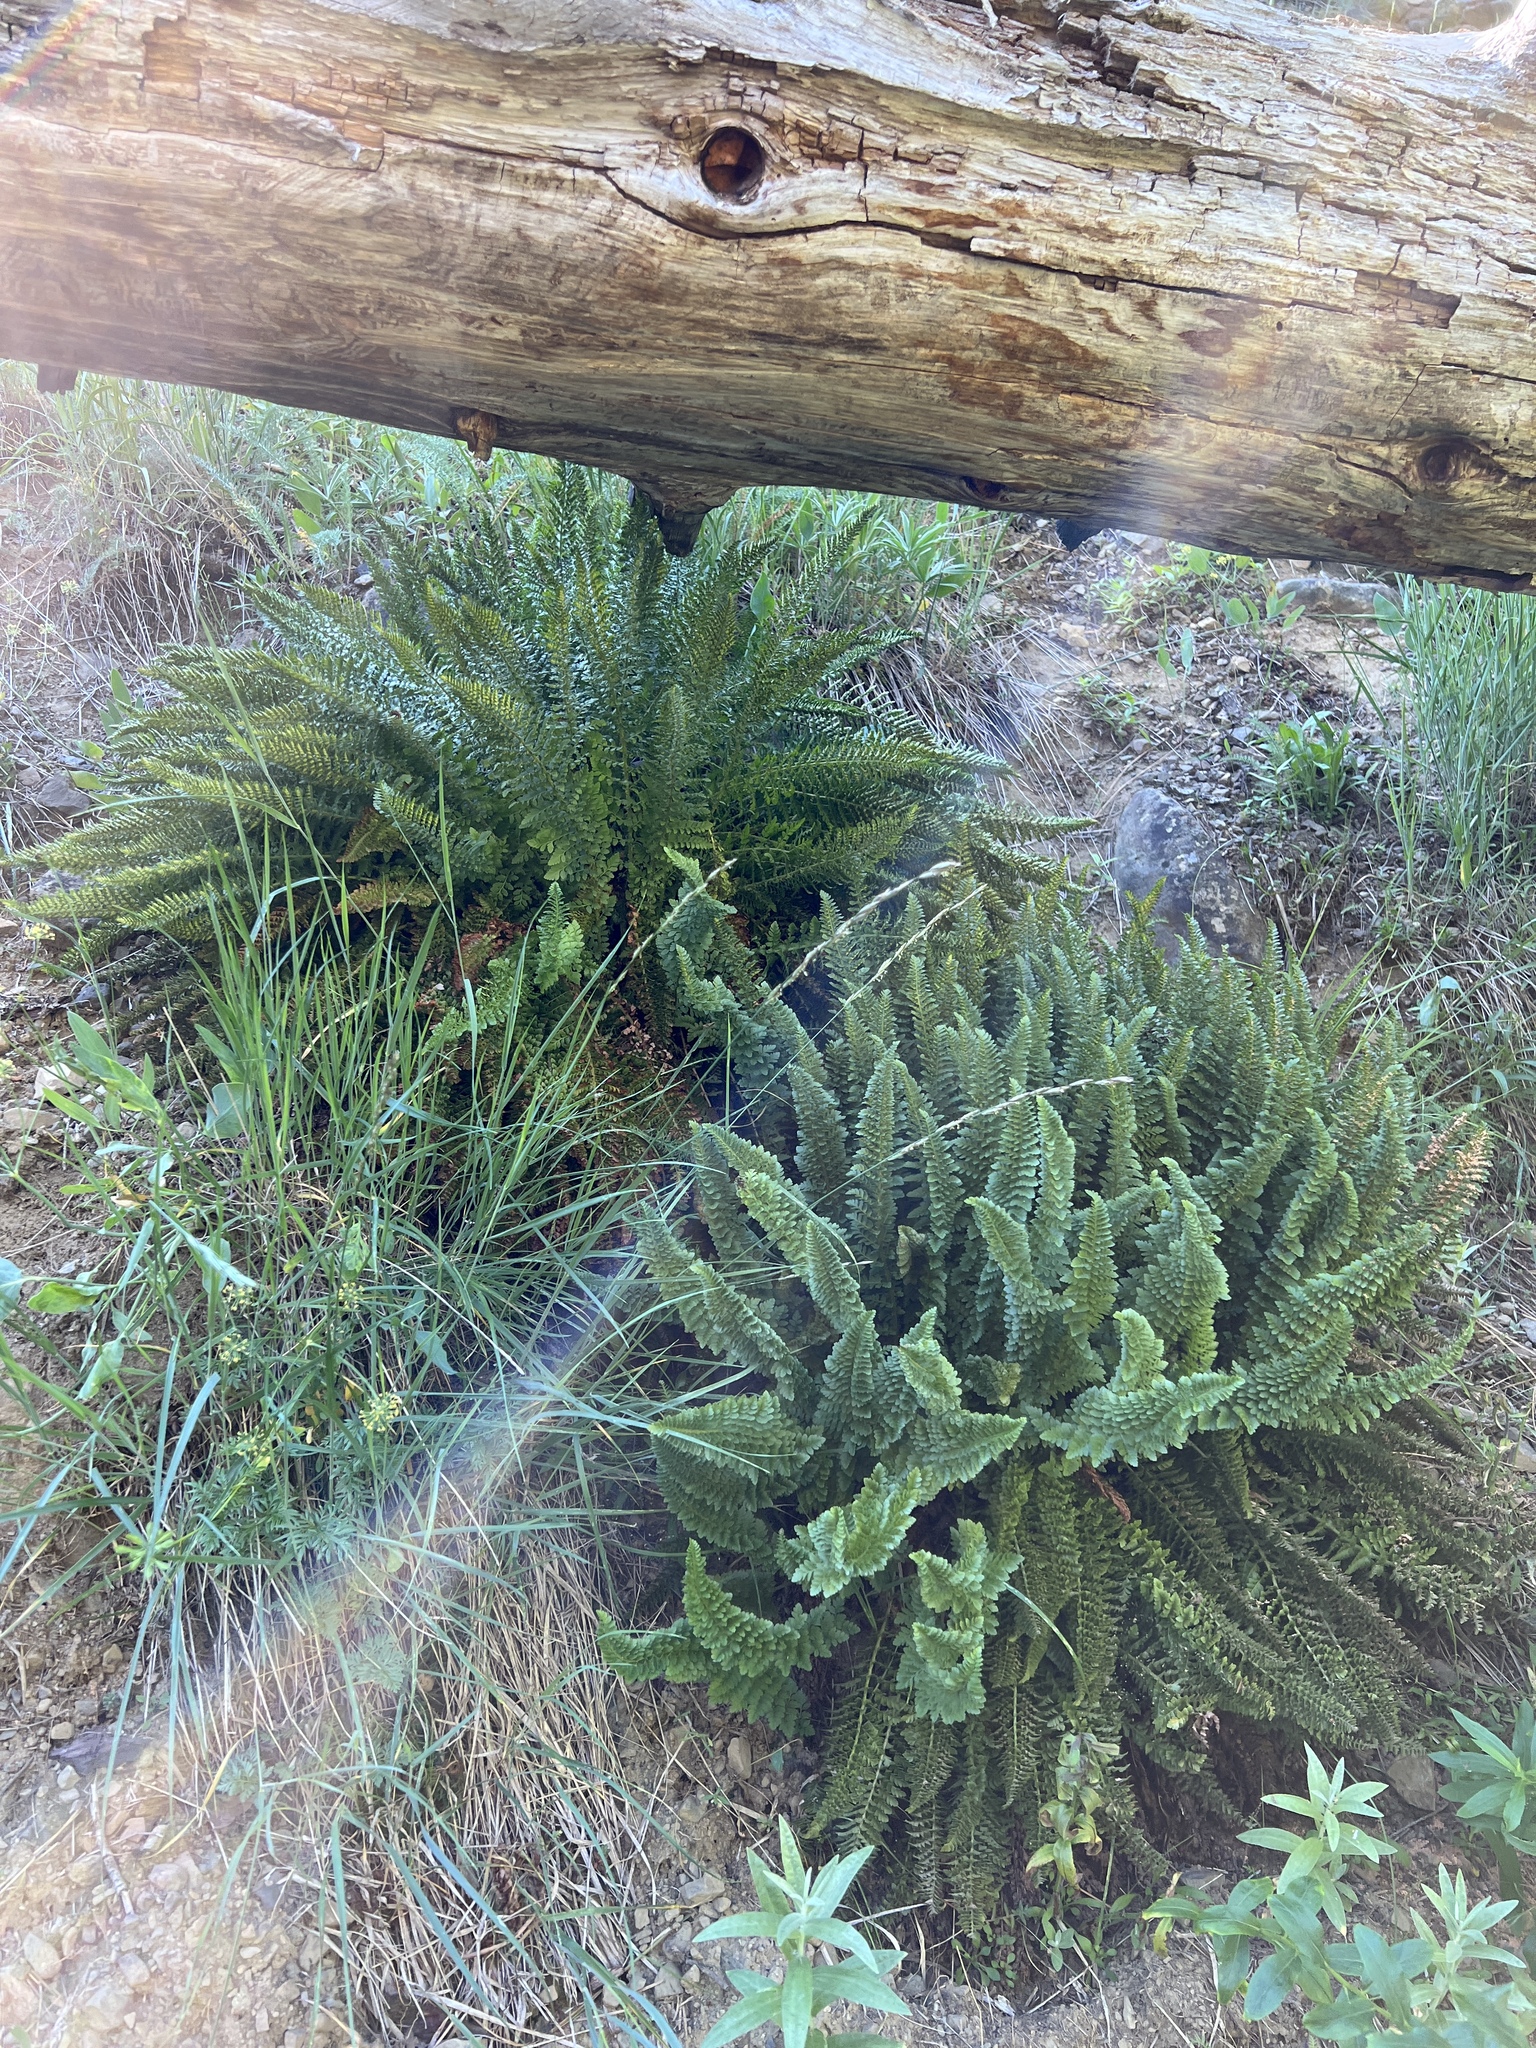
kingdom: Plantae
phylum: Tracheophyta
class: Polypodiopsida
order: Polypodiales
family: Dryopteridaceae
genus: Polystichum
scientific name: Polystichum lemmonii
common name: Lemmon's holly fern
